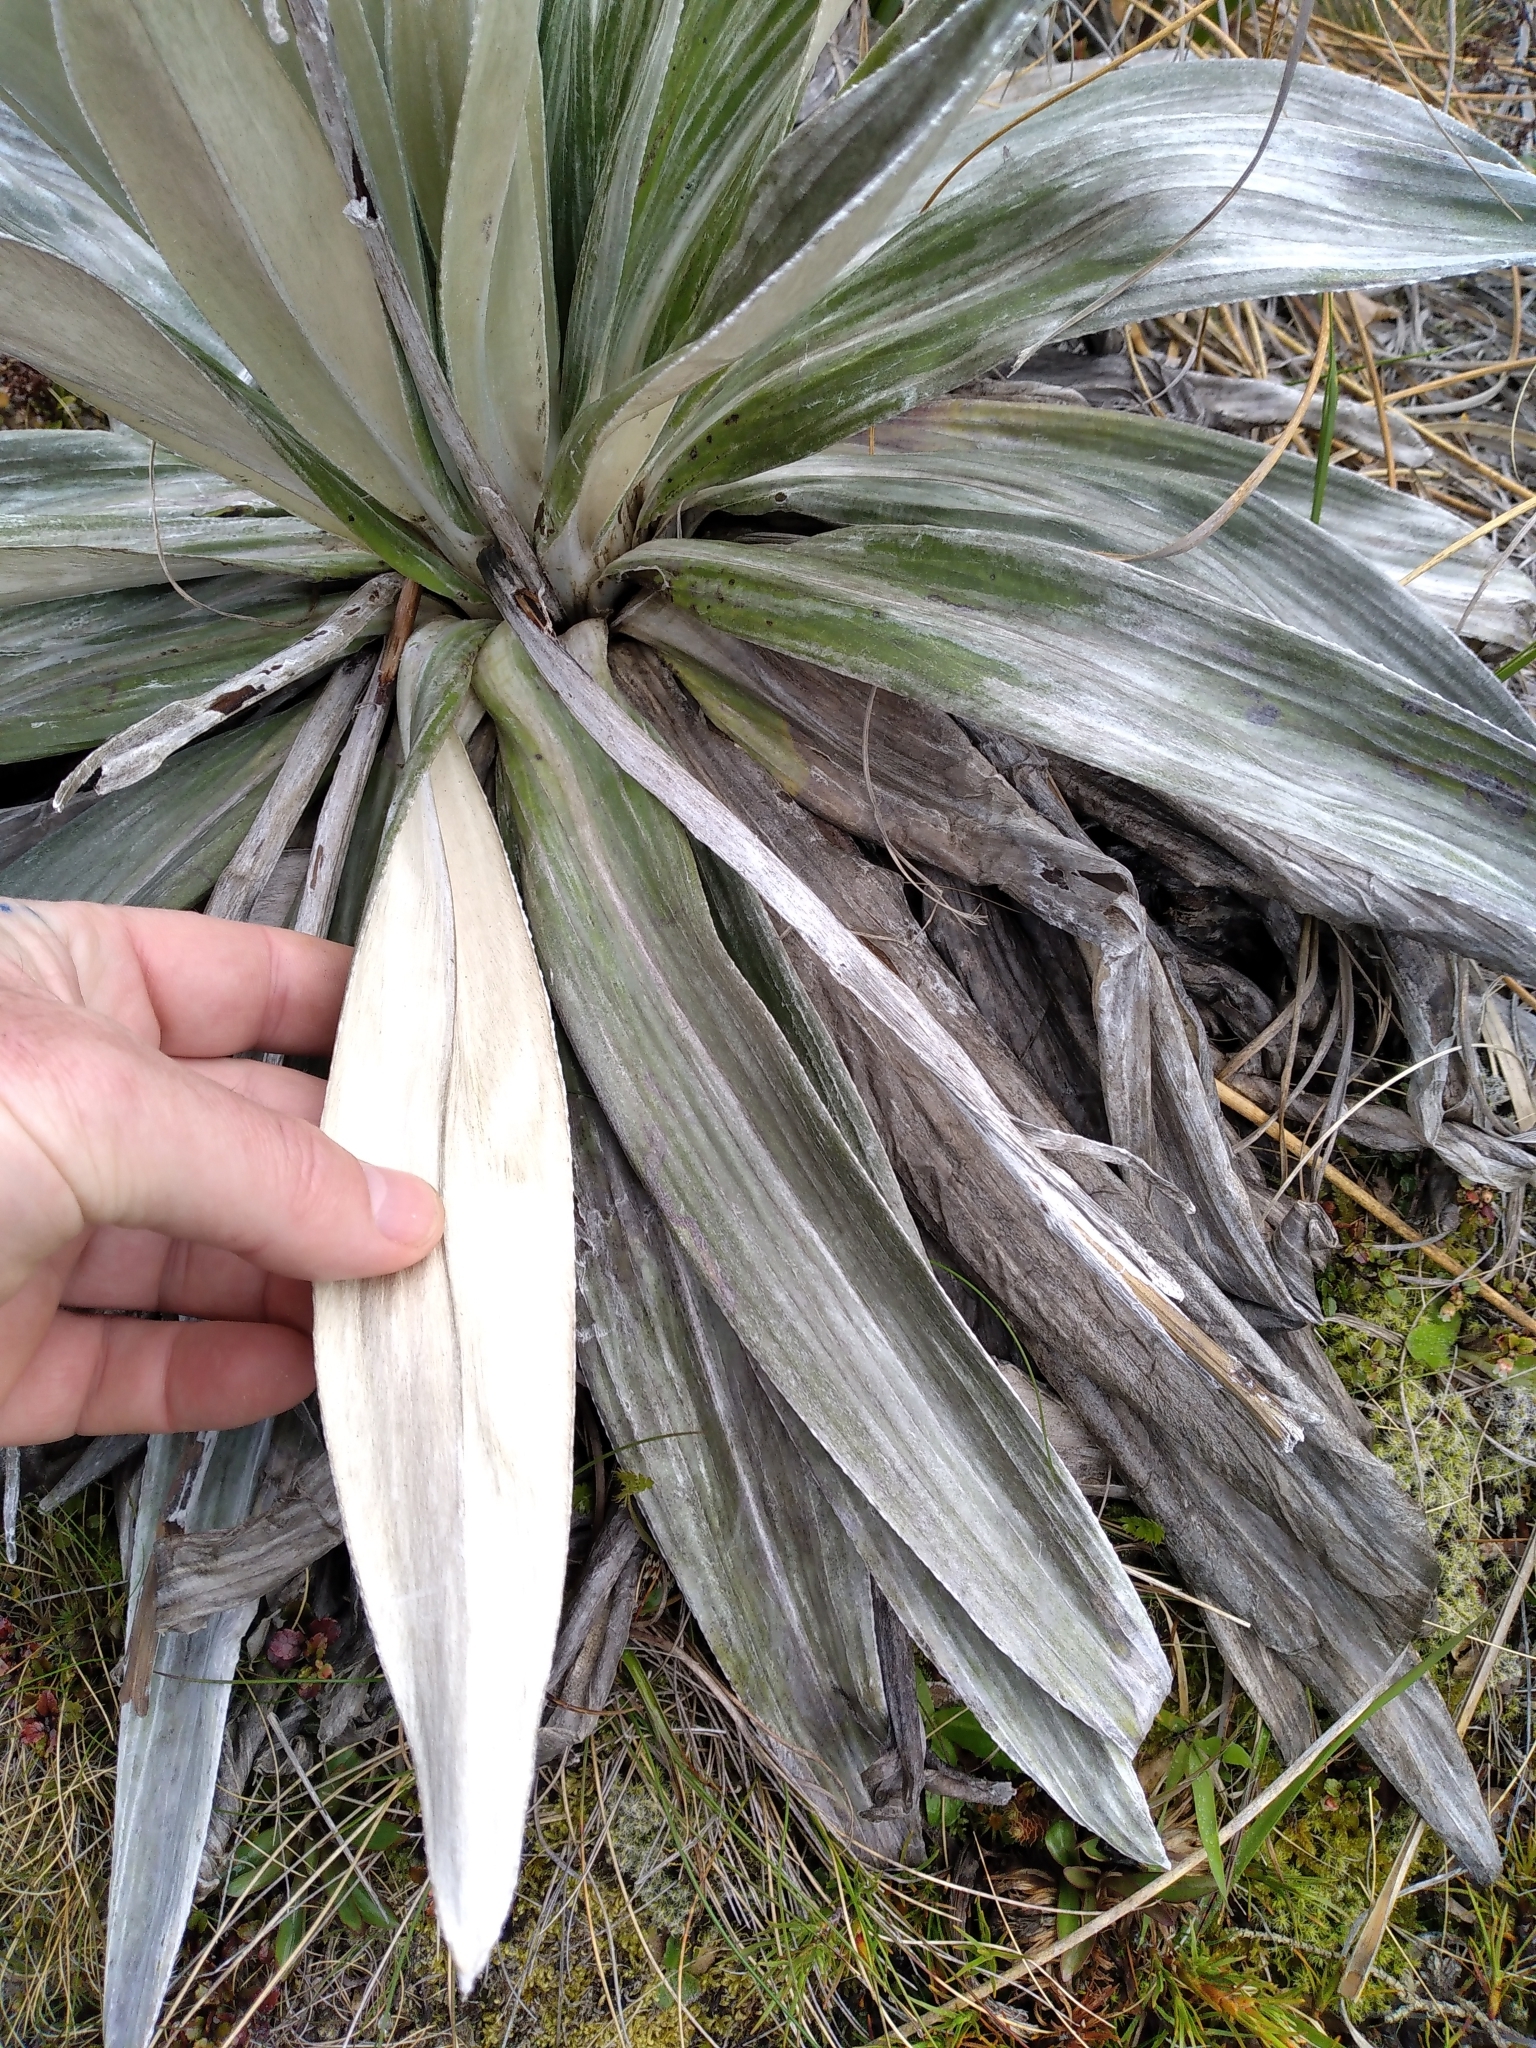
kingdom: Plantae
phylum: Tracheophyta
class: Magnoliopsida
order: Asterales
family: Asteraceae
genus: Celmisia
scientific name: Celmisia semicordata
